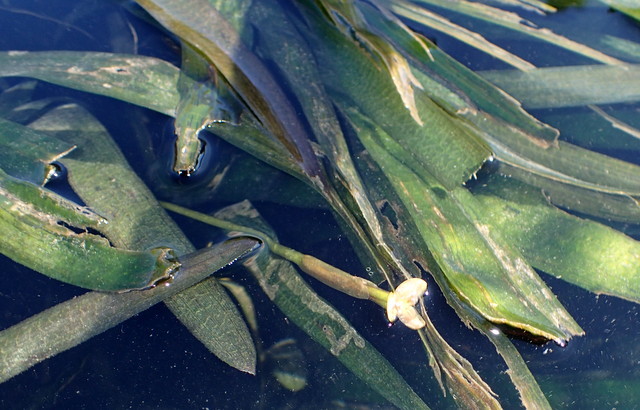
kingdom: Plantae
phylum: Tracheophyta
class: Liliopsida
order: Alismatales
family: Hydrocharitaceae
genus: Vallisneria
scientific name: Vallisneria americana
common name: American eelgrass
